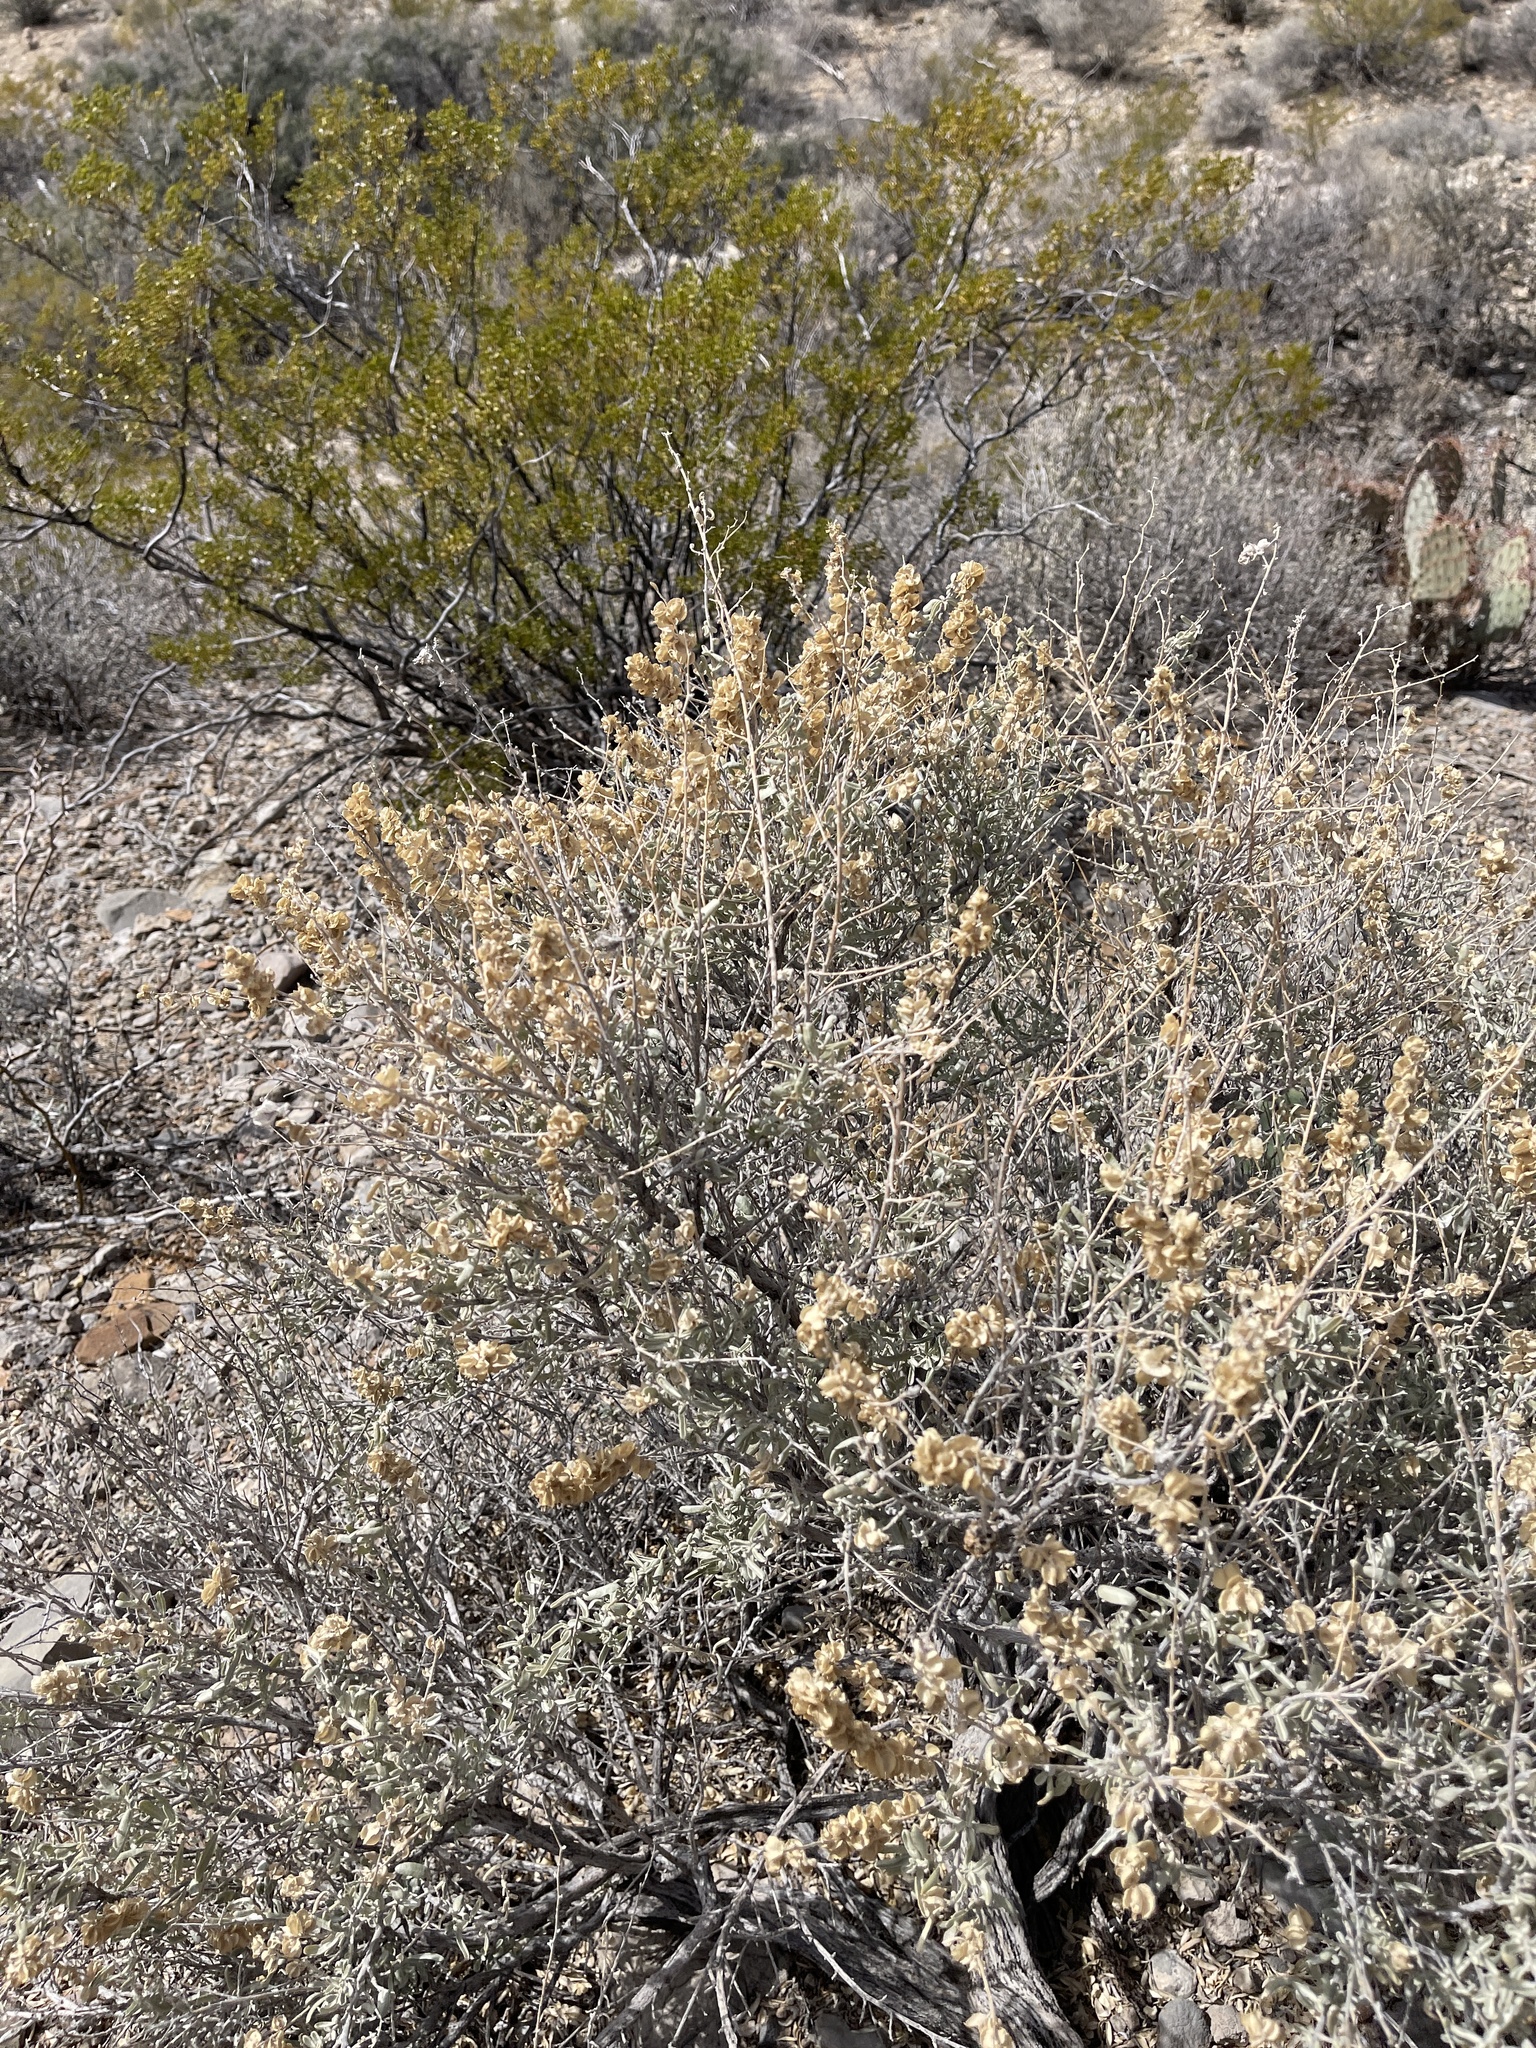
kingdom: Plantae
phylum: Tracheophyta
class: Magnoliopsida
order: Caryophyllales
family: Amaranthaceae
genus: Atriplex
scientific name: Atriplex canescens
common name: Four-wing saltbush
